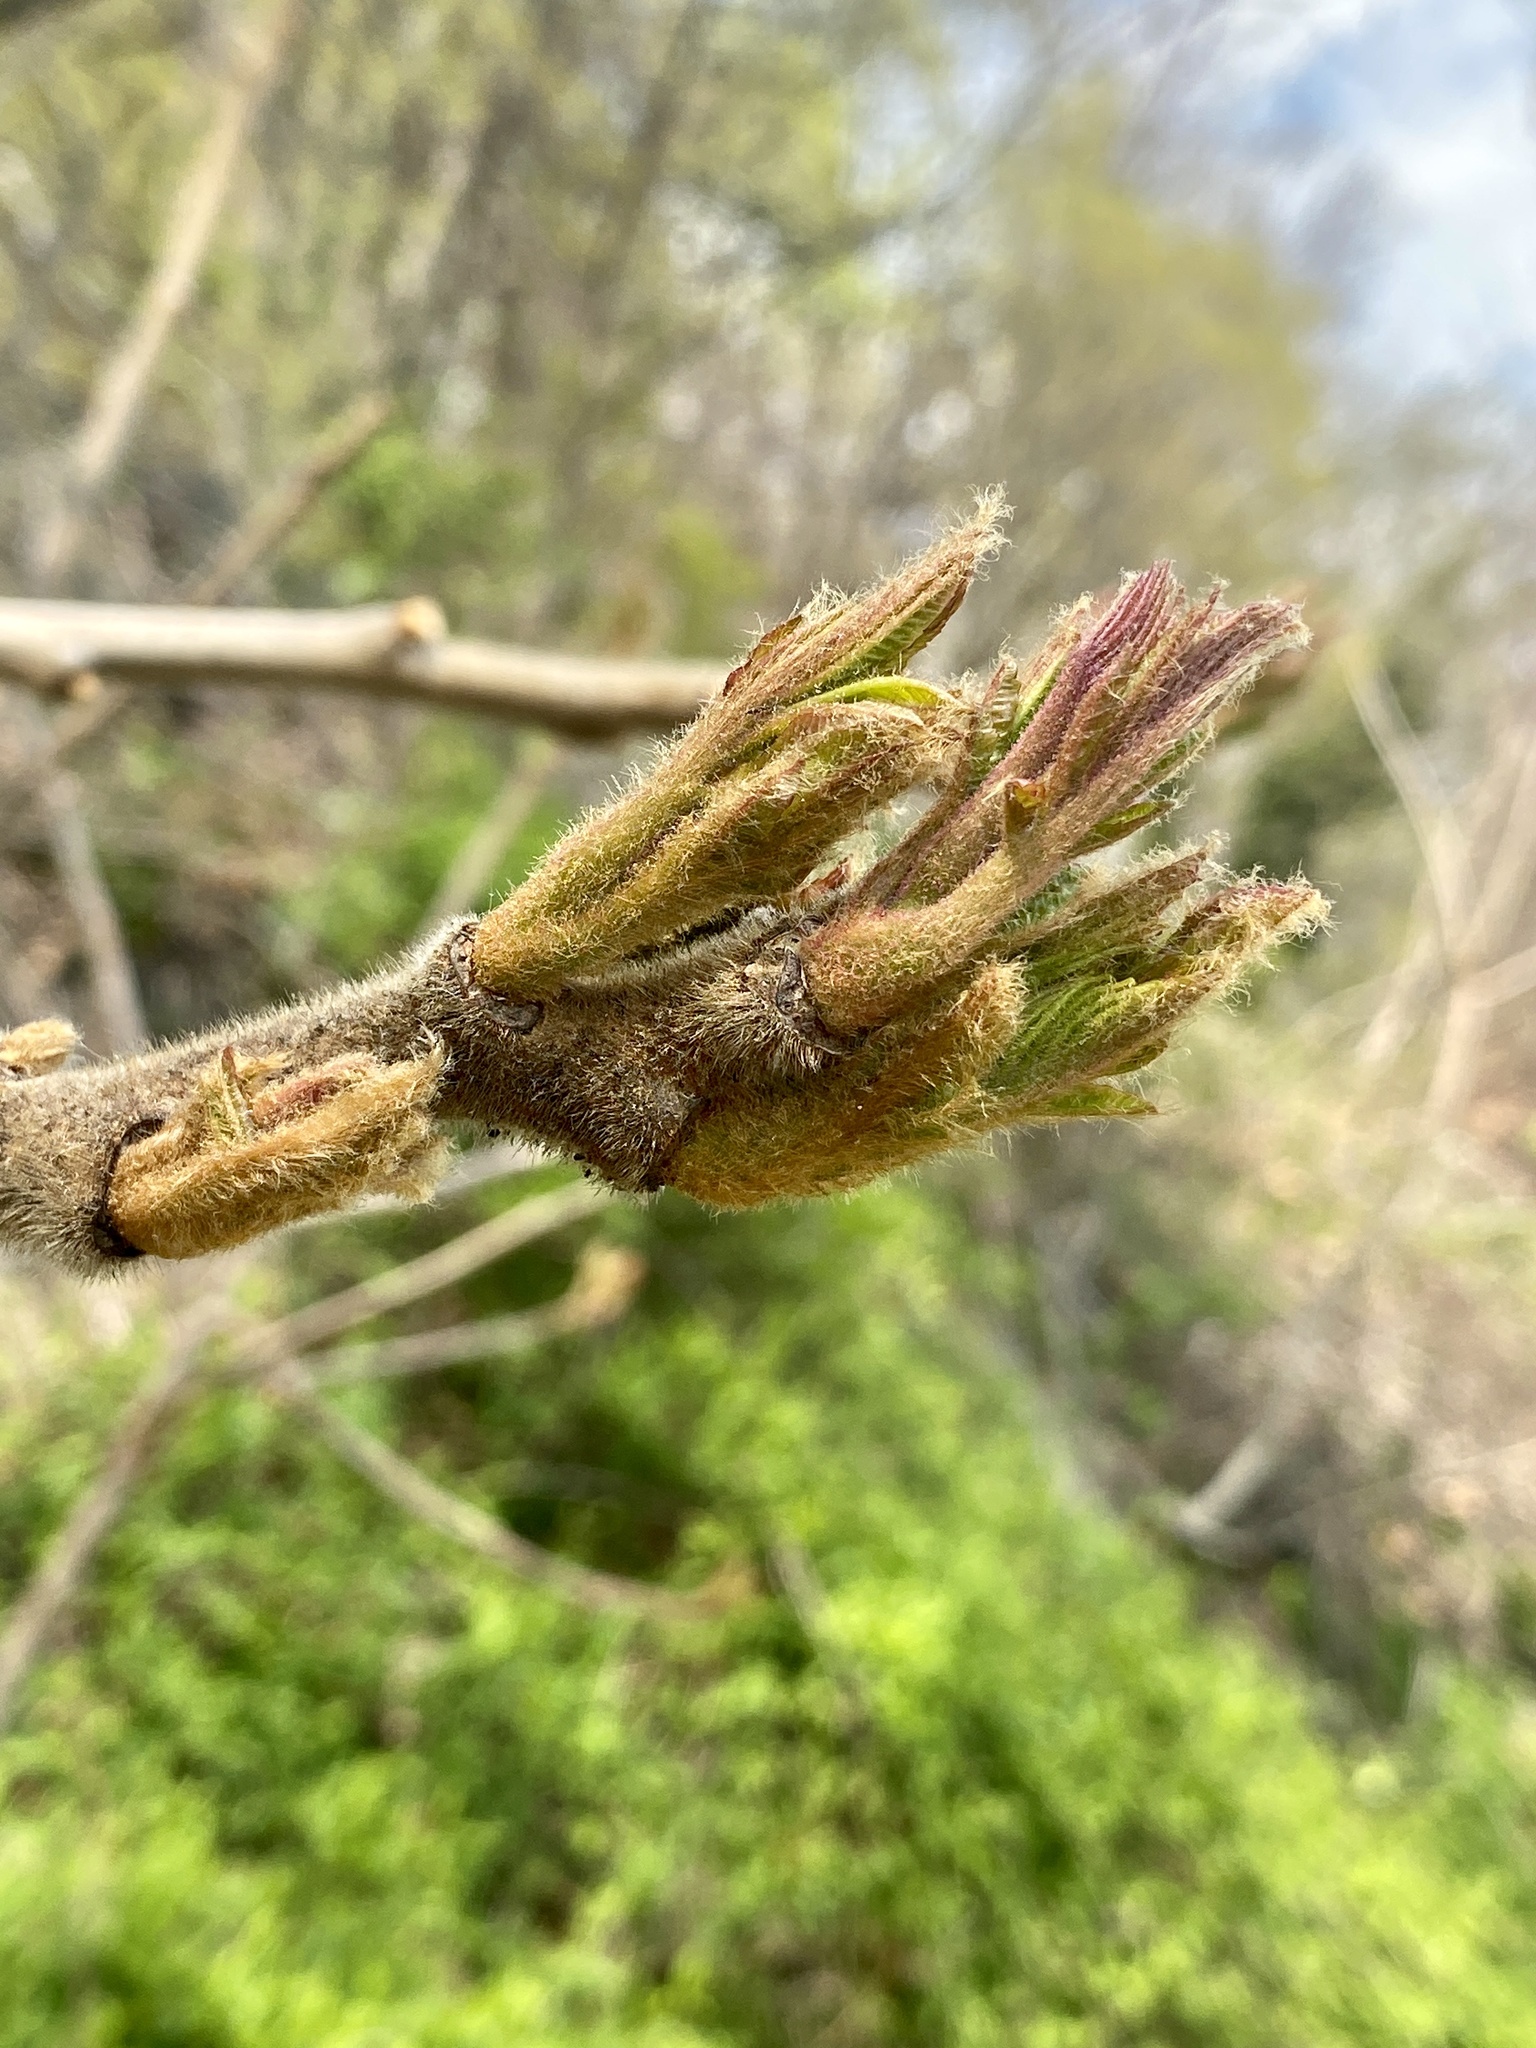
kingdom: Plantae
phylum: Tracheophyta
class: Magnoliopsida
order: Sapindales
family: Anacardiaceae
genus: Rhus
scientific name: Rhus typhina
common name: Staghorn sumac
